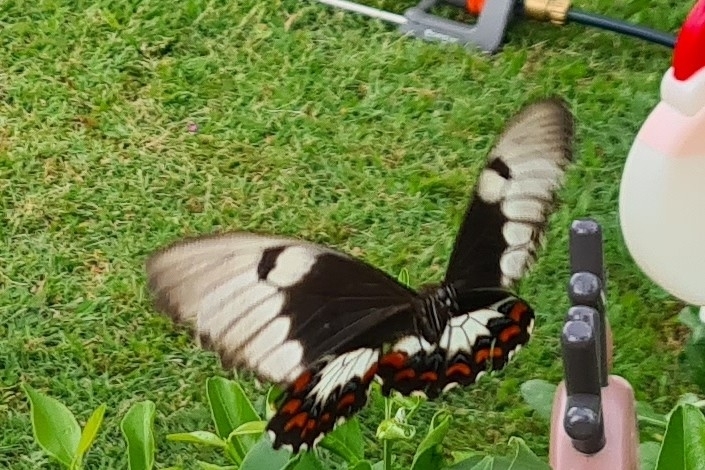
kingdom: Animalia
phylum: Arthropoda
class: Insecta
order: Lepidoptera
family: Papilionidae
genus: Papilio
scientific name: Papilio aegeus
